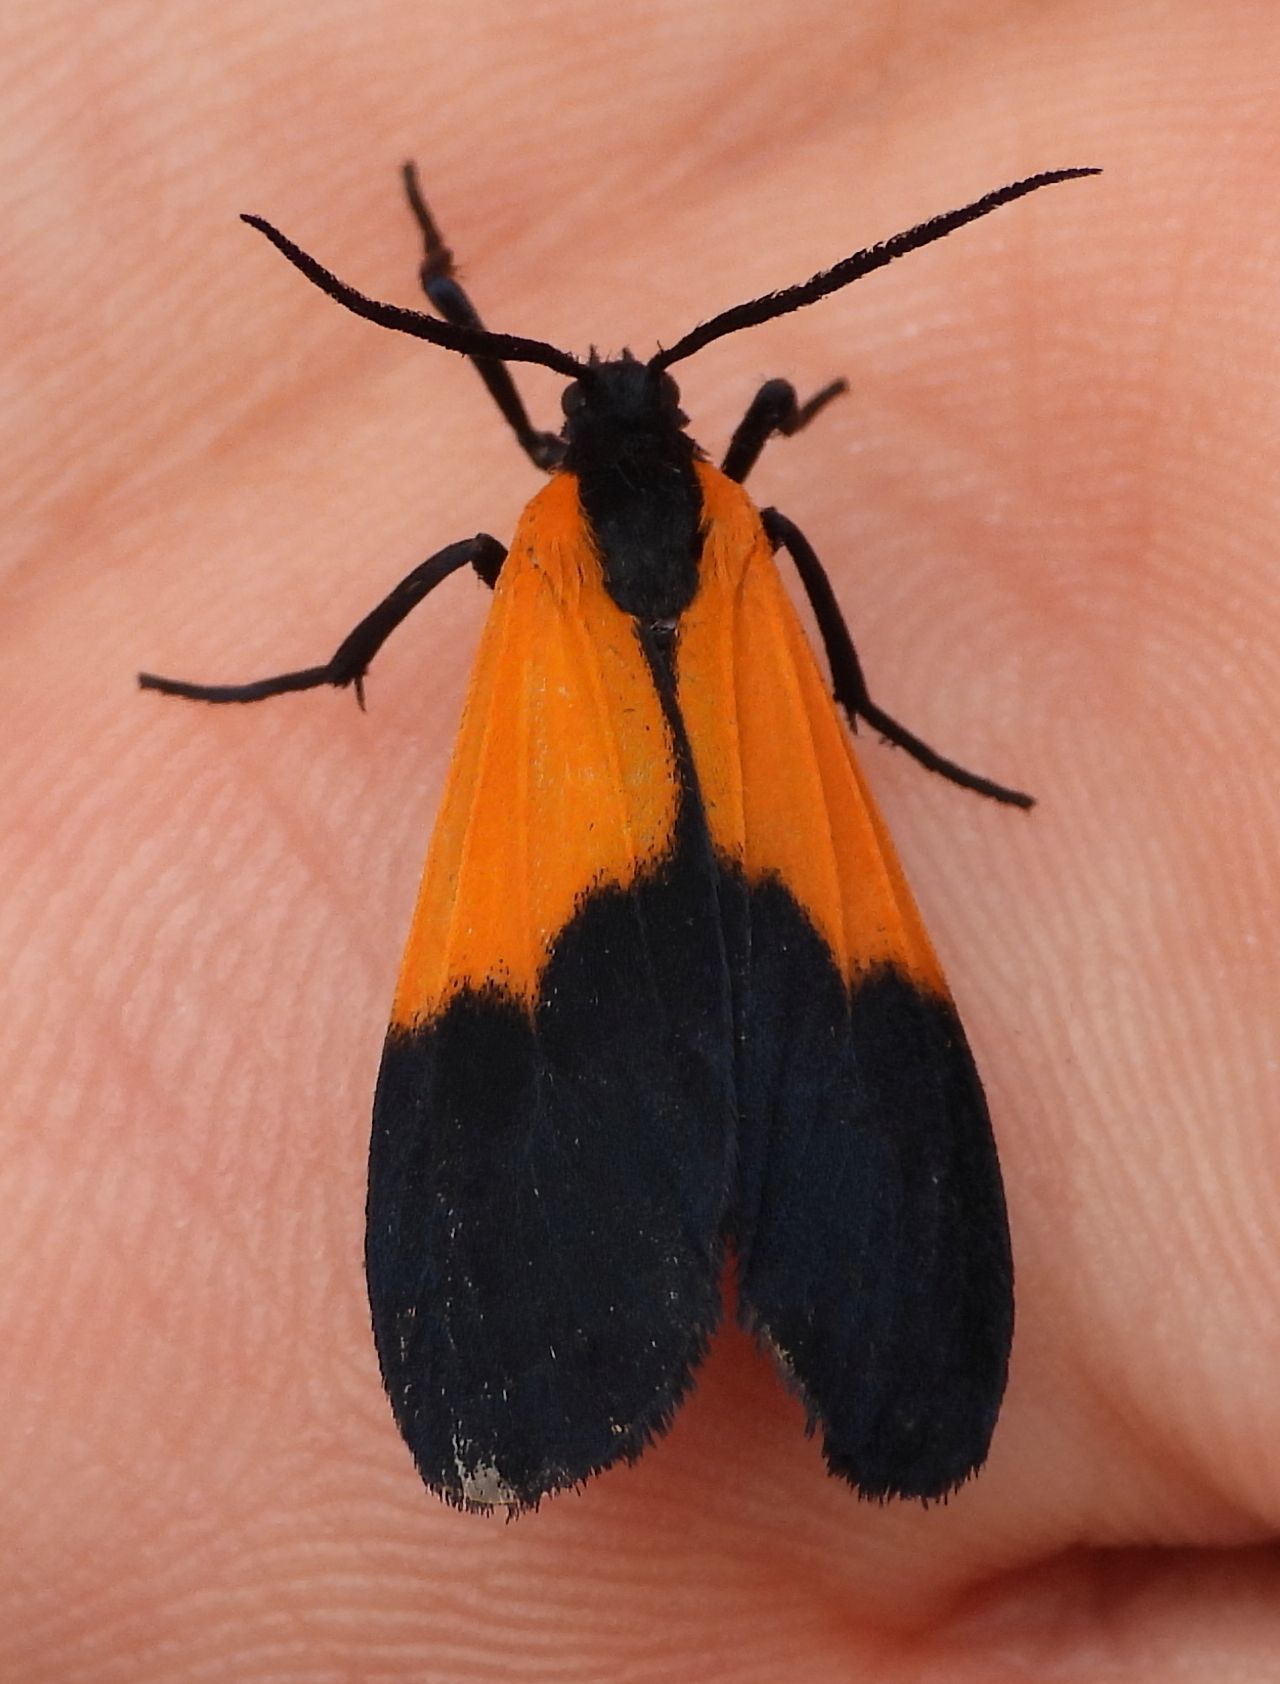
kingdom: Animalia
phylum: Arthropoda
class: Insecta
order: Lepidoptera
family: Erebidae
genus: Lycomorpha
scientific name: Lycomorpha pholus
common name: Black-and-yellow lichen moth
